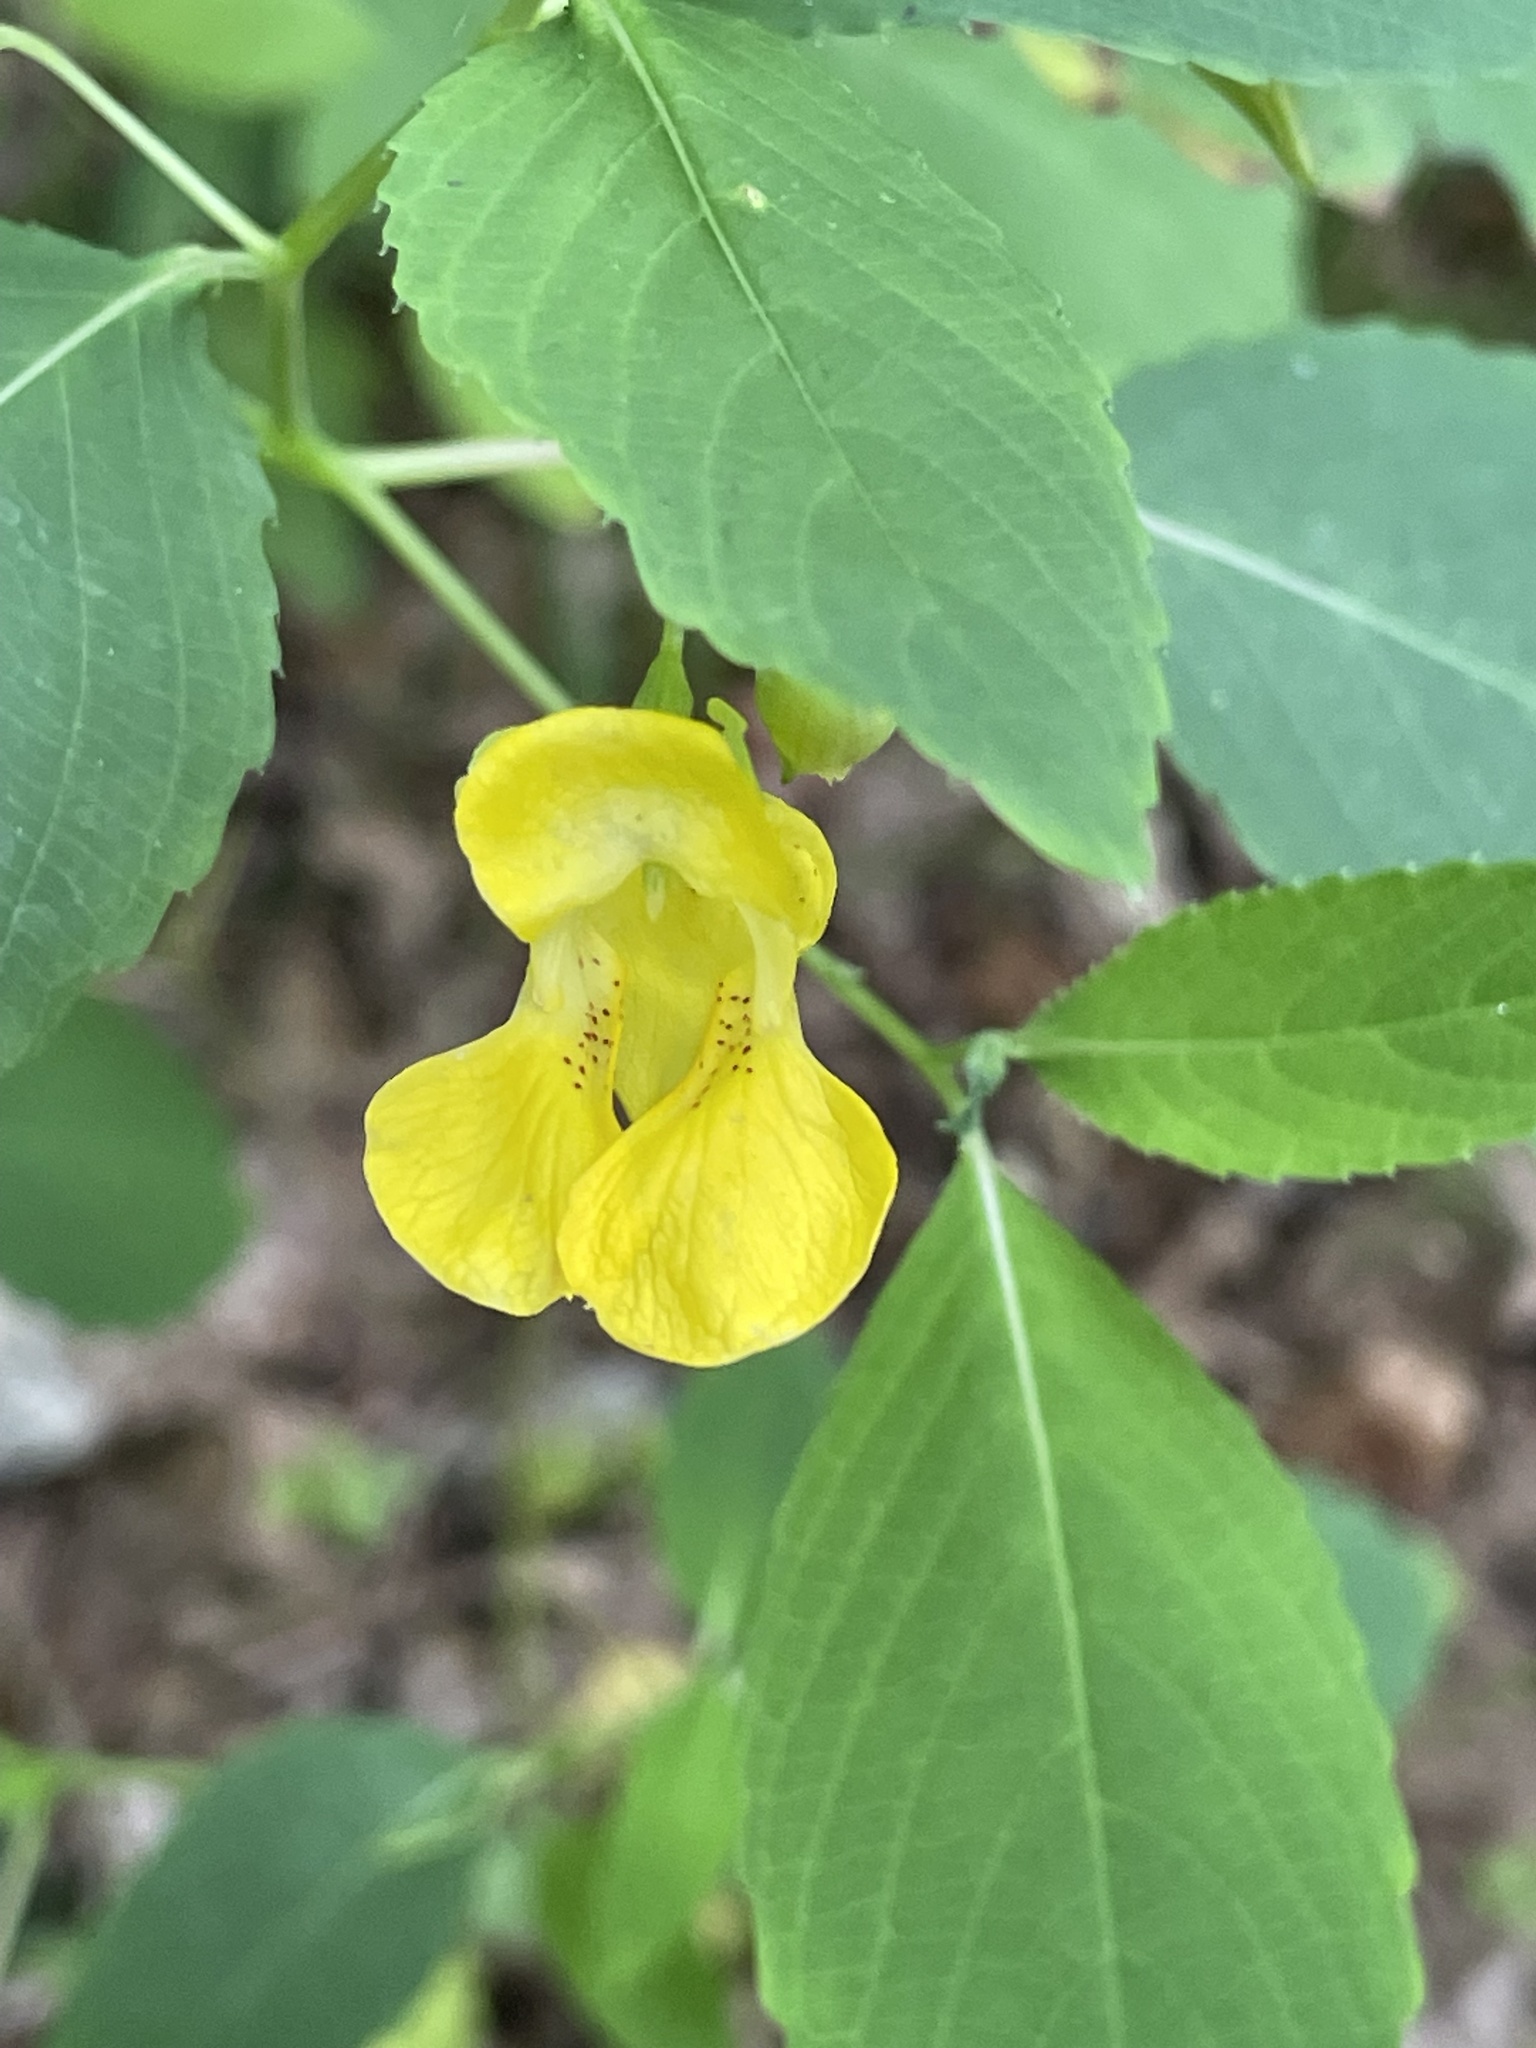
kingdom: Plantae
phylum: Tracheophyta
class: Magnoliopsida
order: Ericales
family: Balsaminaceae
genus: Impatiens
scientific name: Impatiens pallida
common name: Pale snapweed
